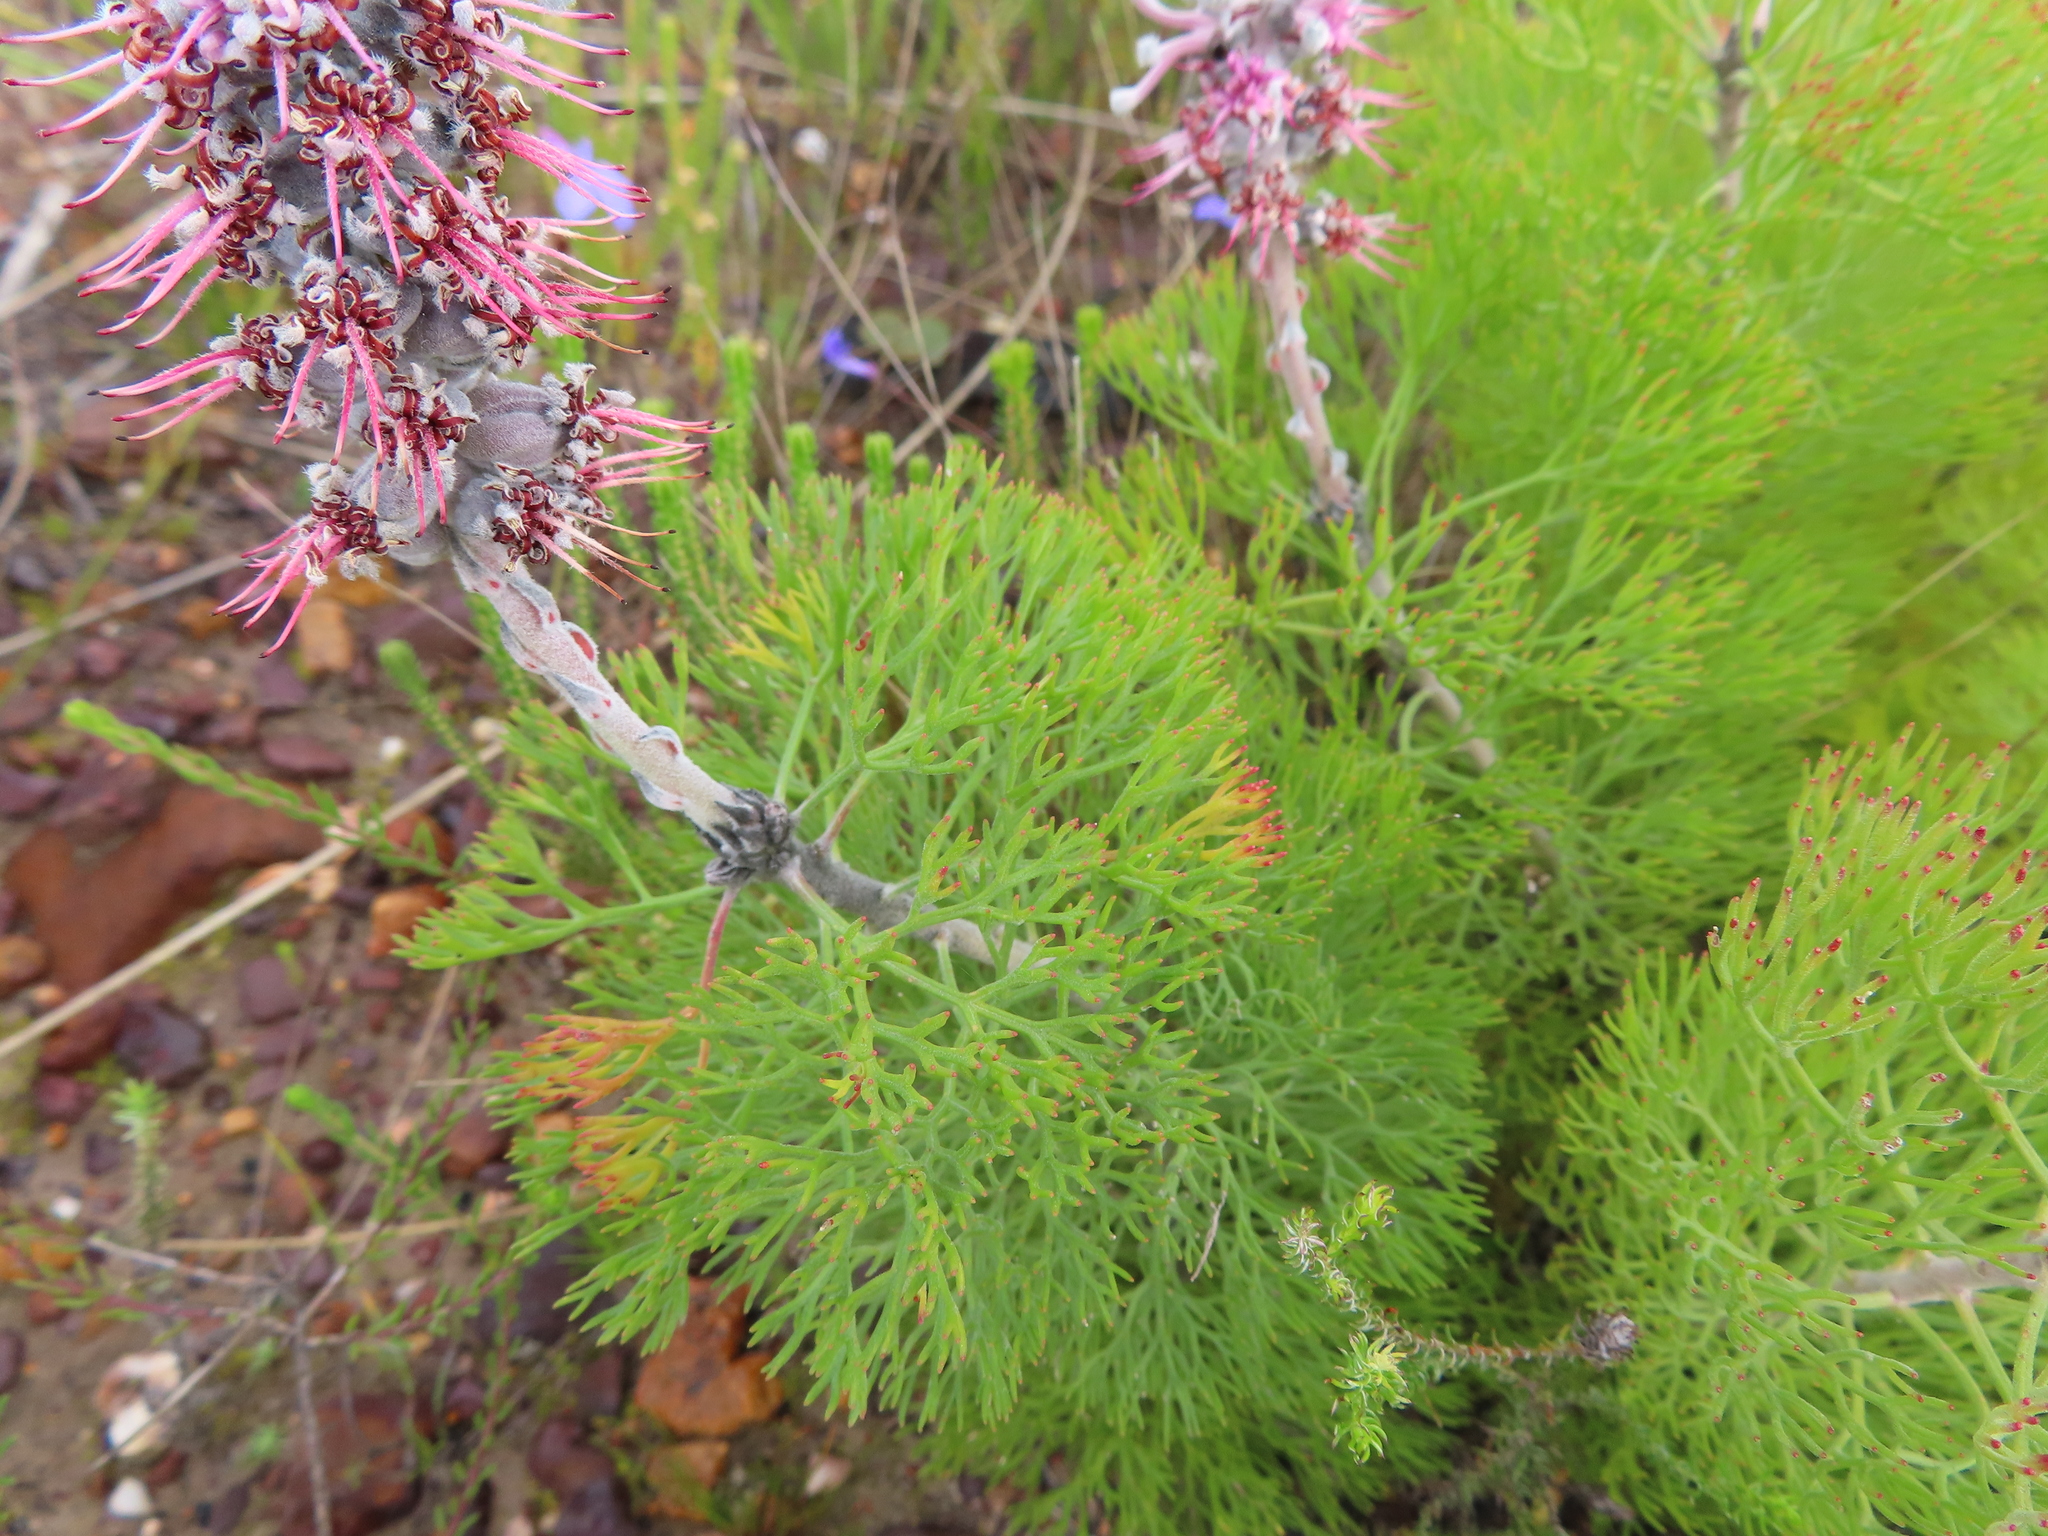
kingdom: Plantae
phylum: Tracheophyta
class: Magnoliopsida
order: Proteales
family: Proteaceae
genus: Paranomus
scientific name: Paranomus bolusii
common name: Overberg sceptre
